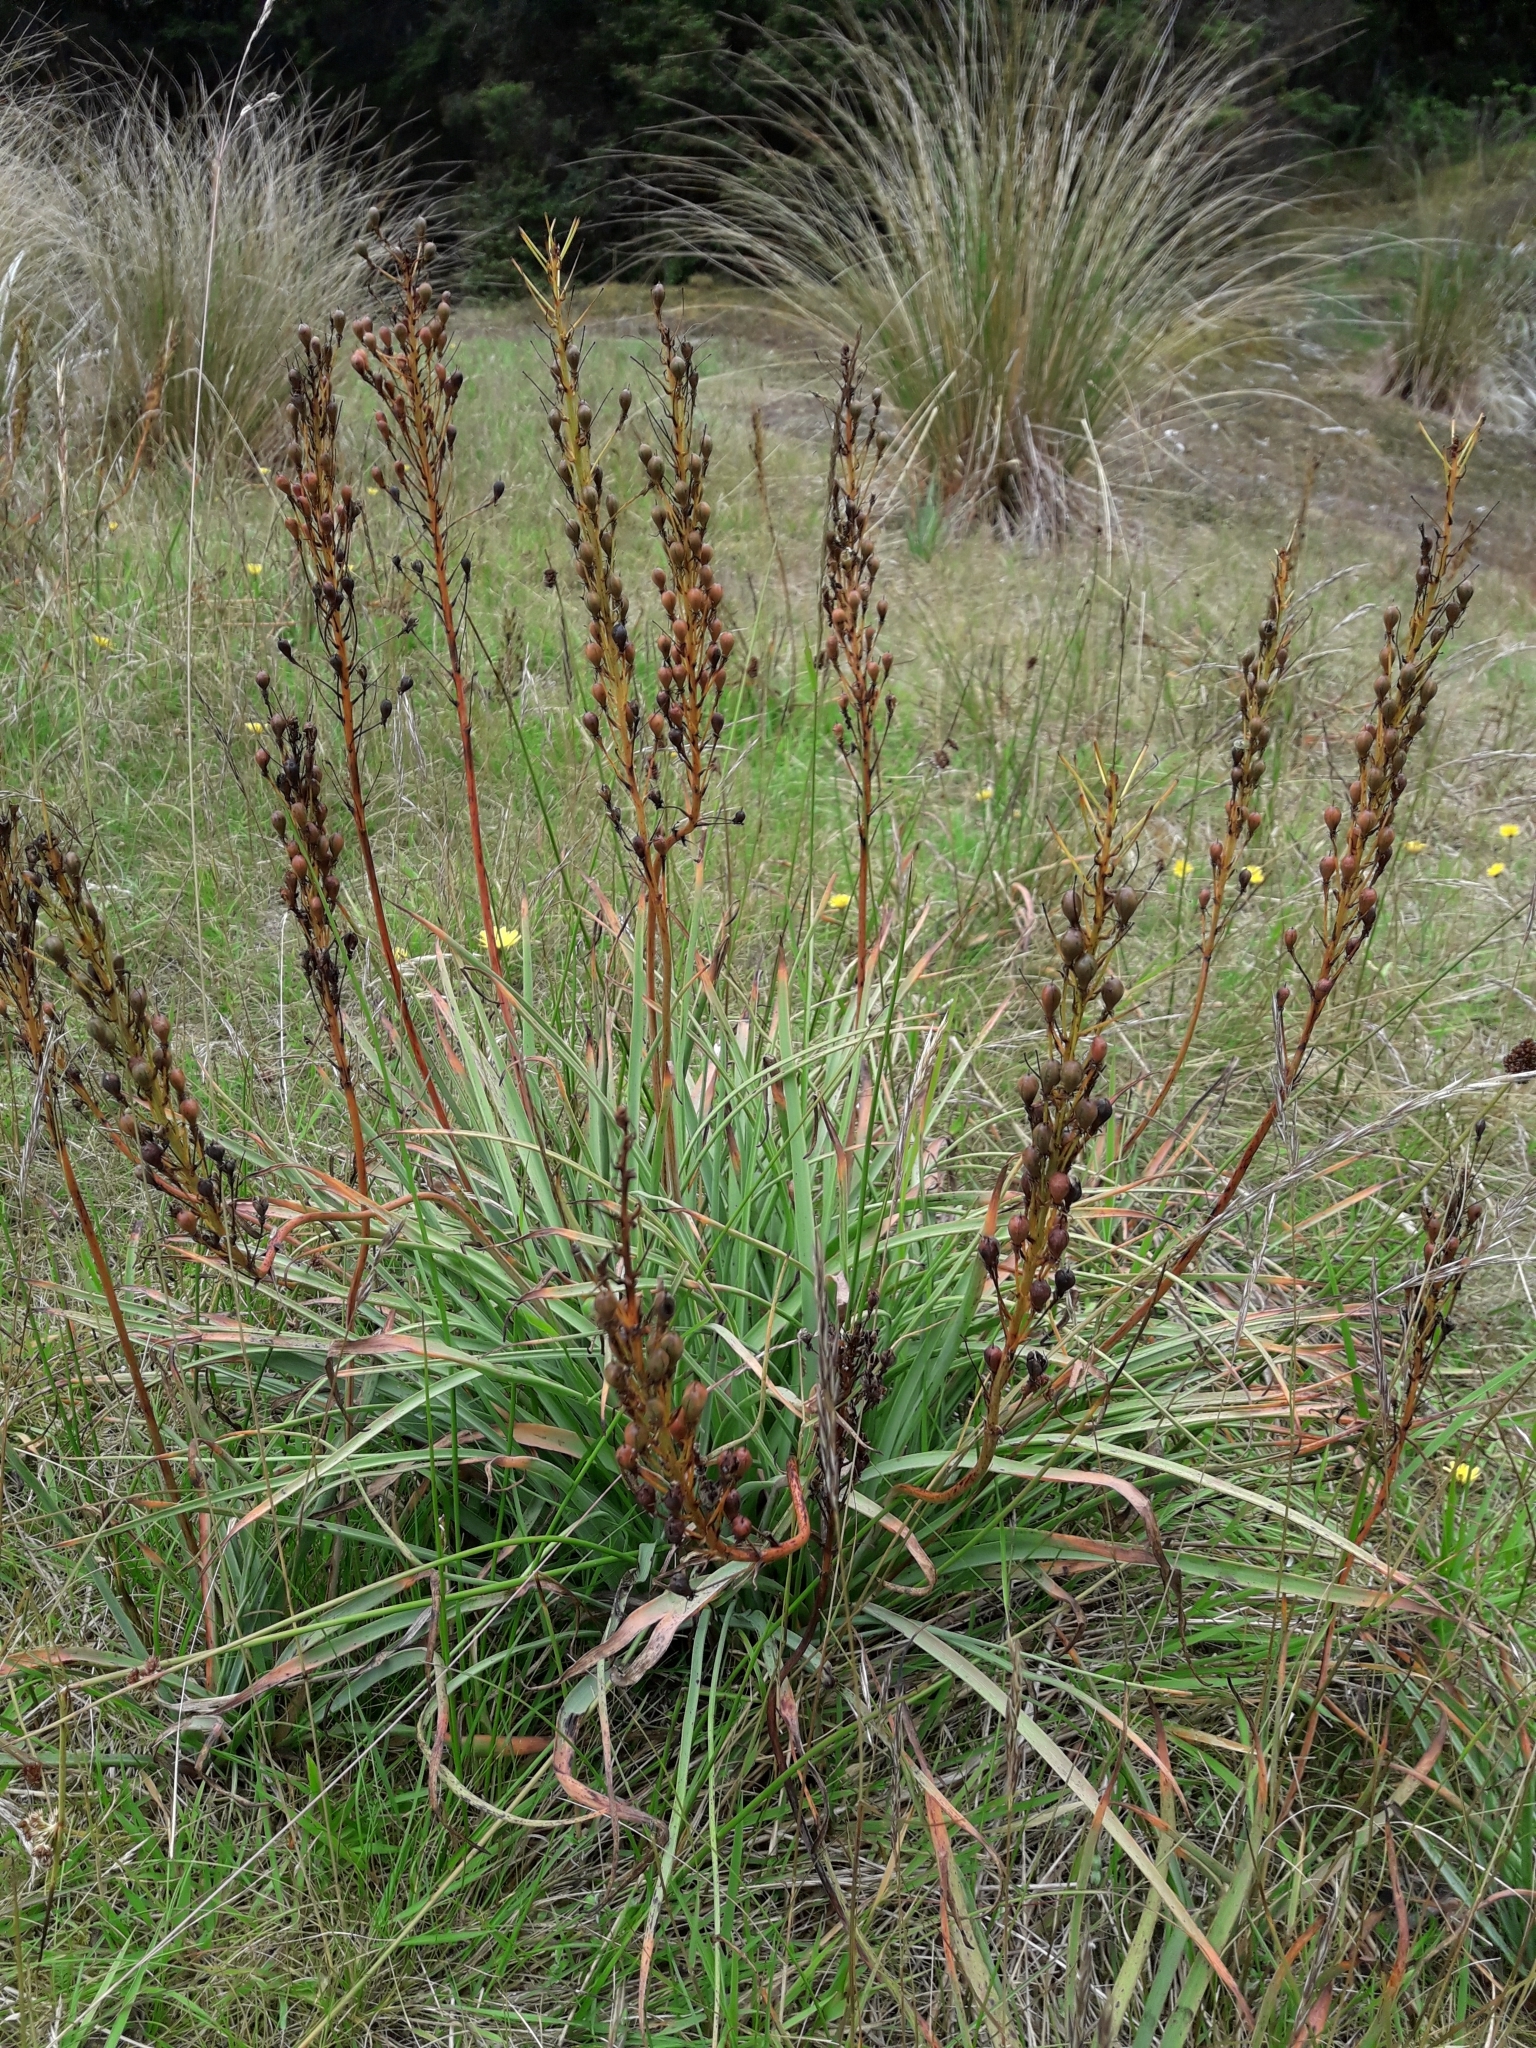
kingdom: Plantae
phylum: Tracheophyta
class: Liliopsida
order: Asparagales
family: Asphodelaceae
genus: Bulbinella
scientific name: Bulbinella hookeri
